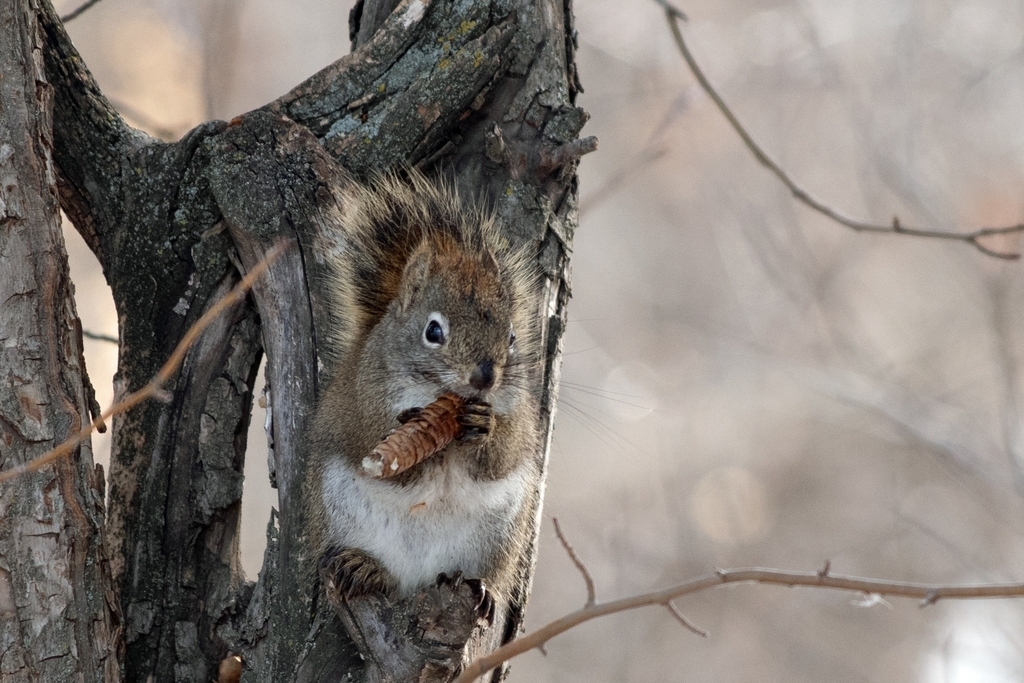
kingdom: Animalia
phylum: Chordata
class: Mammalia
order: Rodentia
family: Sciuridae
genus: Tamiasciurus
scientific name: Tamiasciurus hudsonicus
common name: Red squirrel
